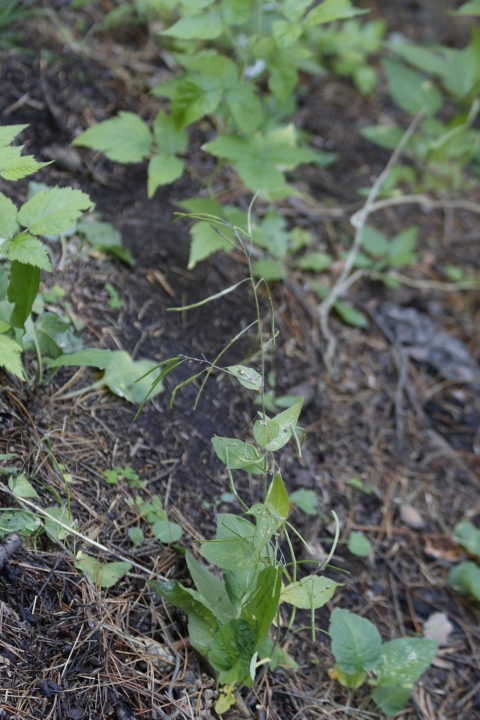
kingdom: Plantae
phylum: Tracheophyta
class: Magnoliopsida
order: Brassicales
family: Brassicaceae
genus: Catolobus
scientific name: Catolobus pendulus
